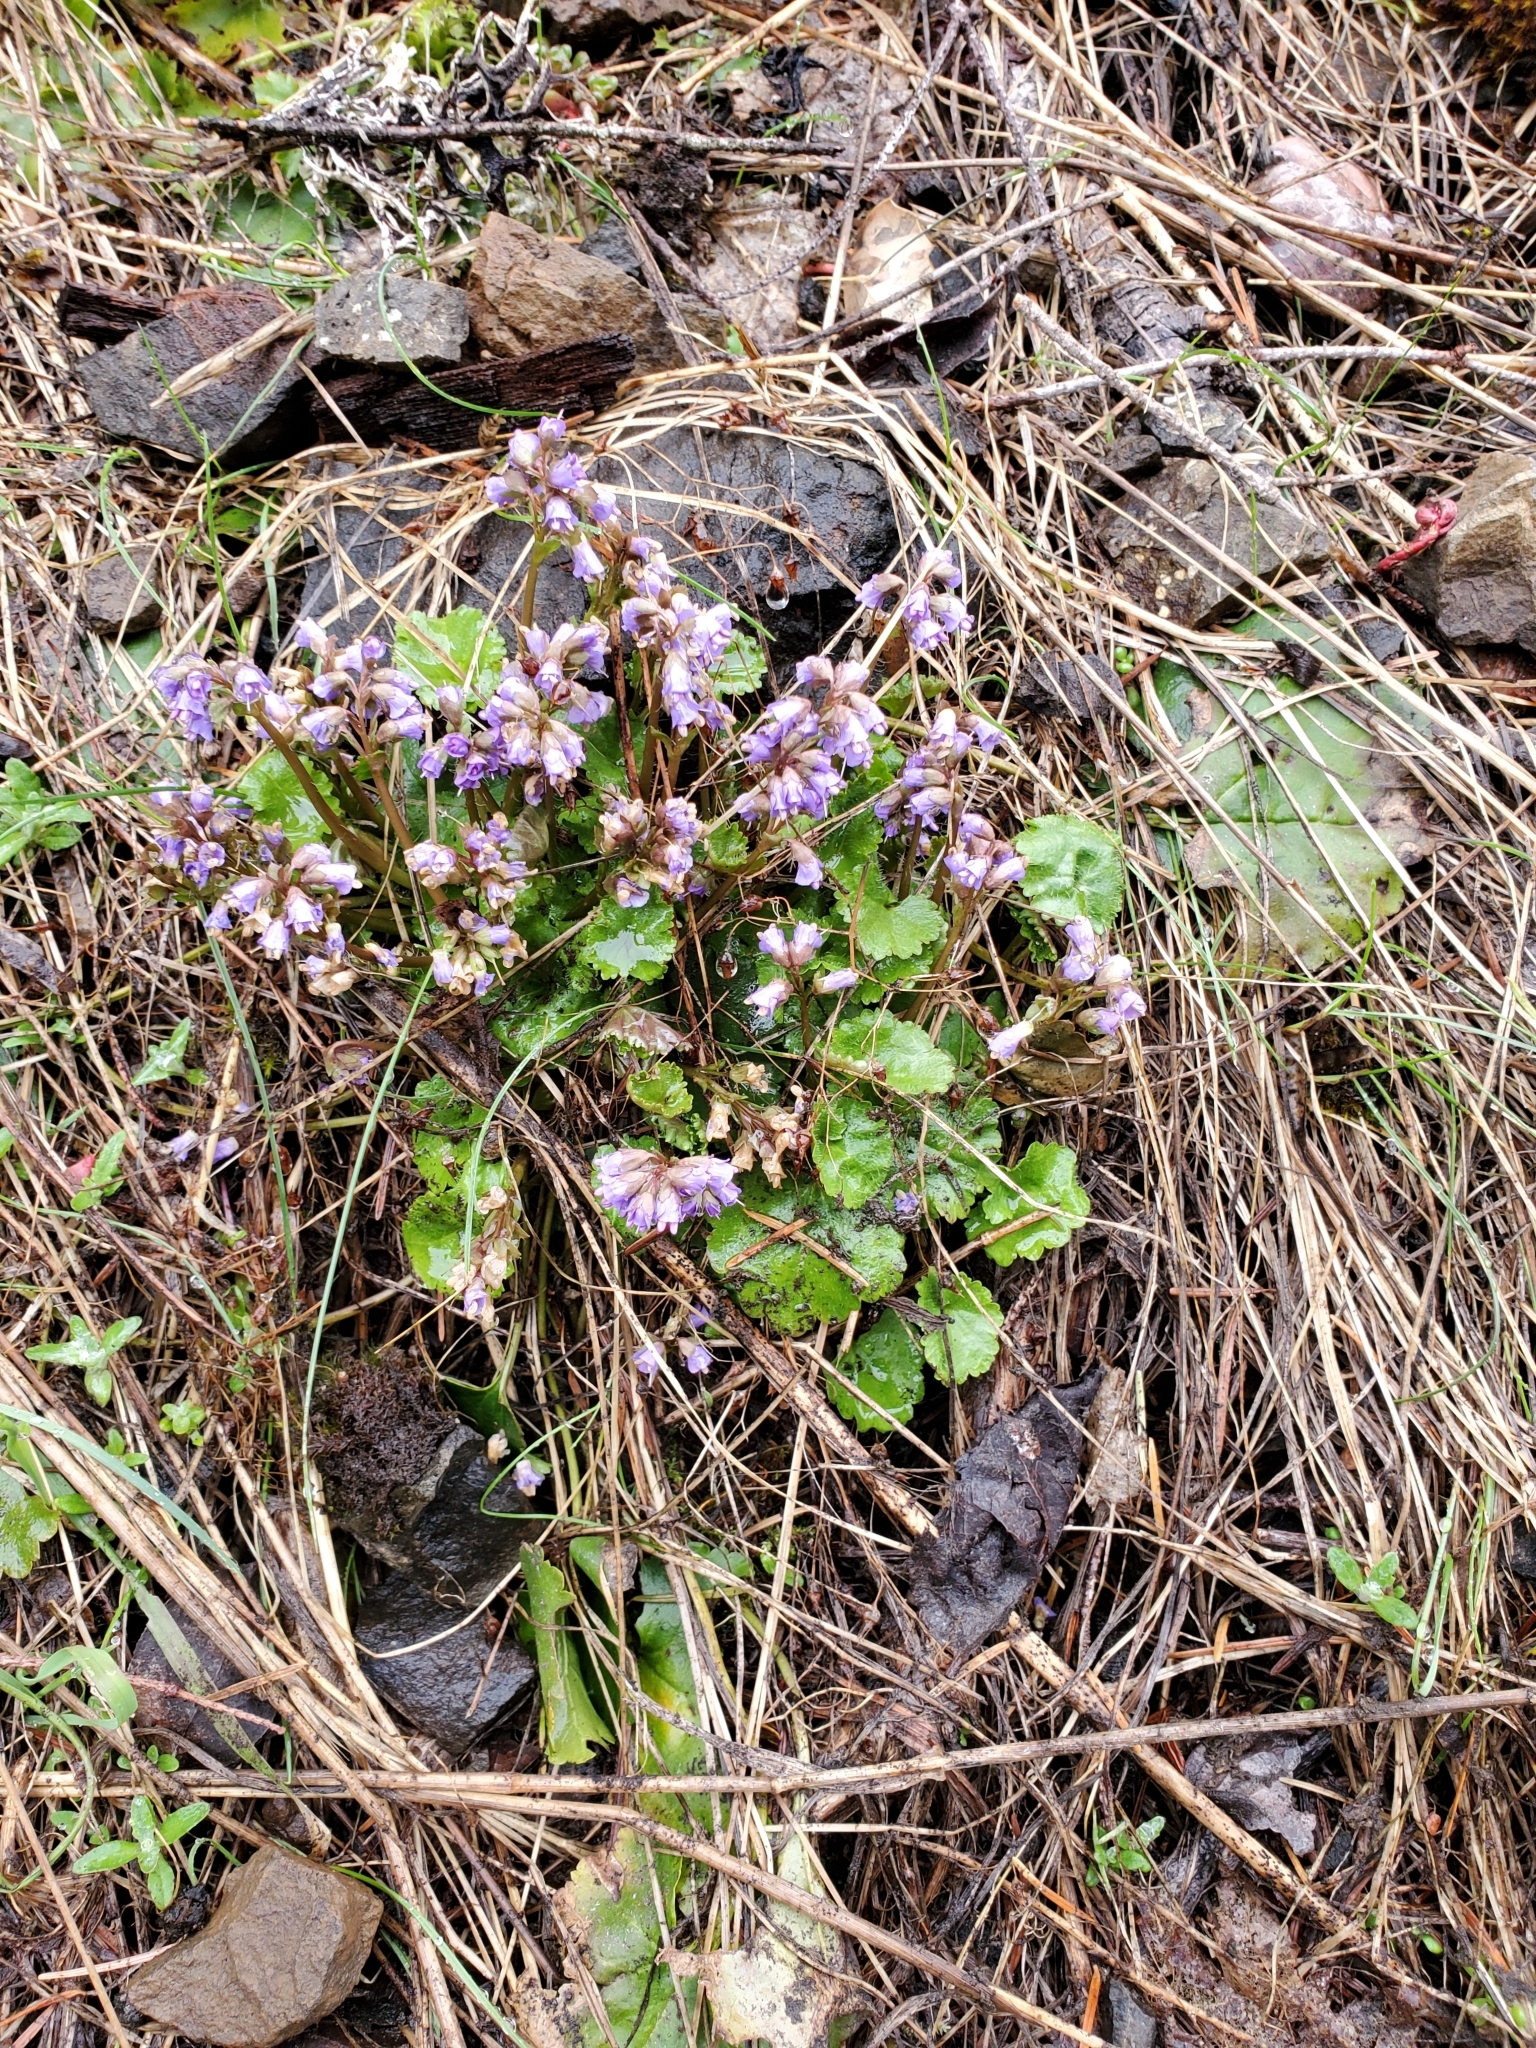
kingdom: Plantae
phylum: Tracheophyta
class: Magnoliopsida
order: Lamiales
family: Plantaginaceae
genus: Synthyris
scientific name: Synthyris reniformis
